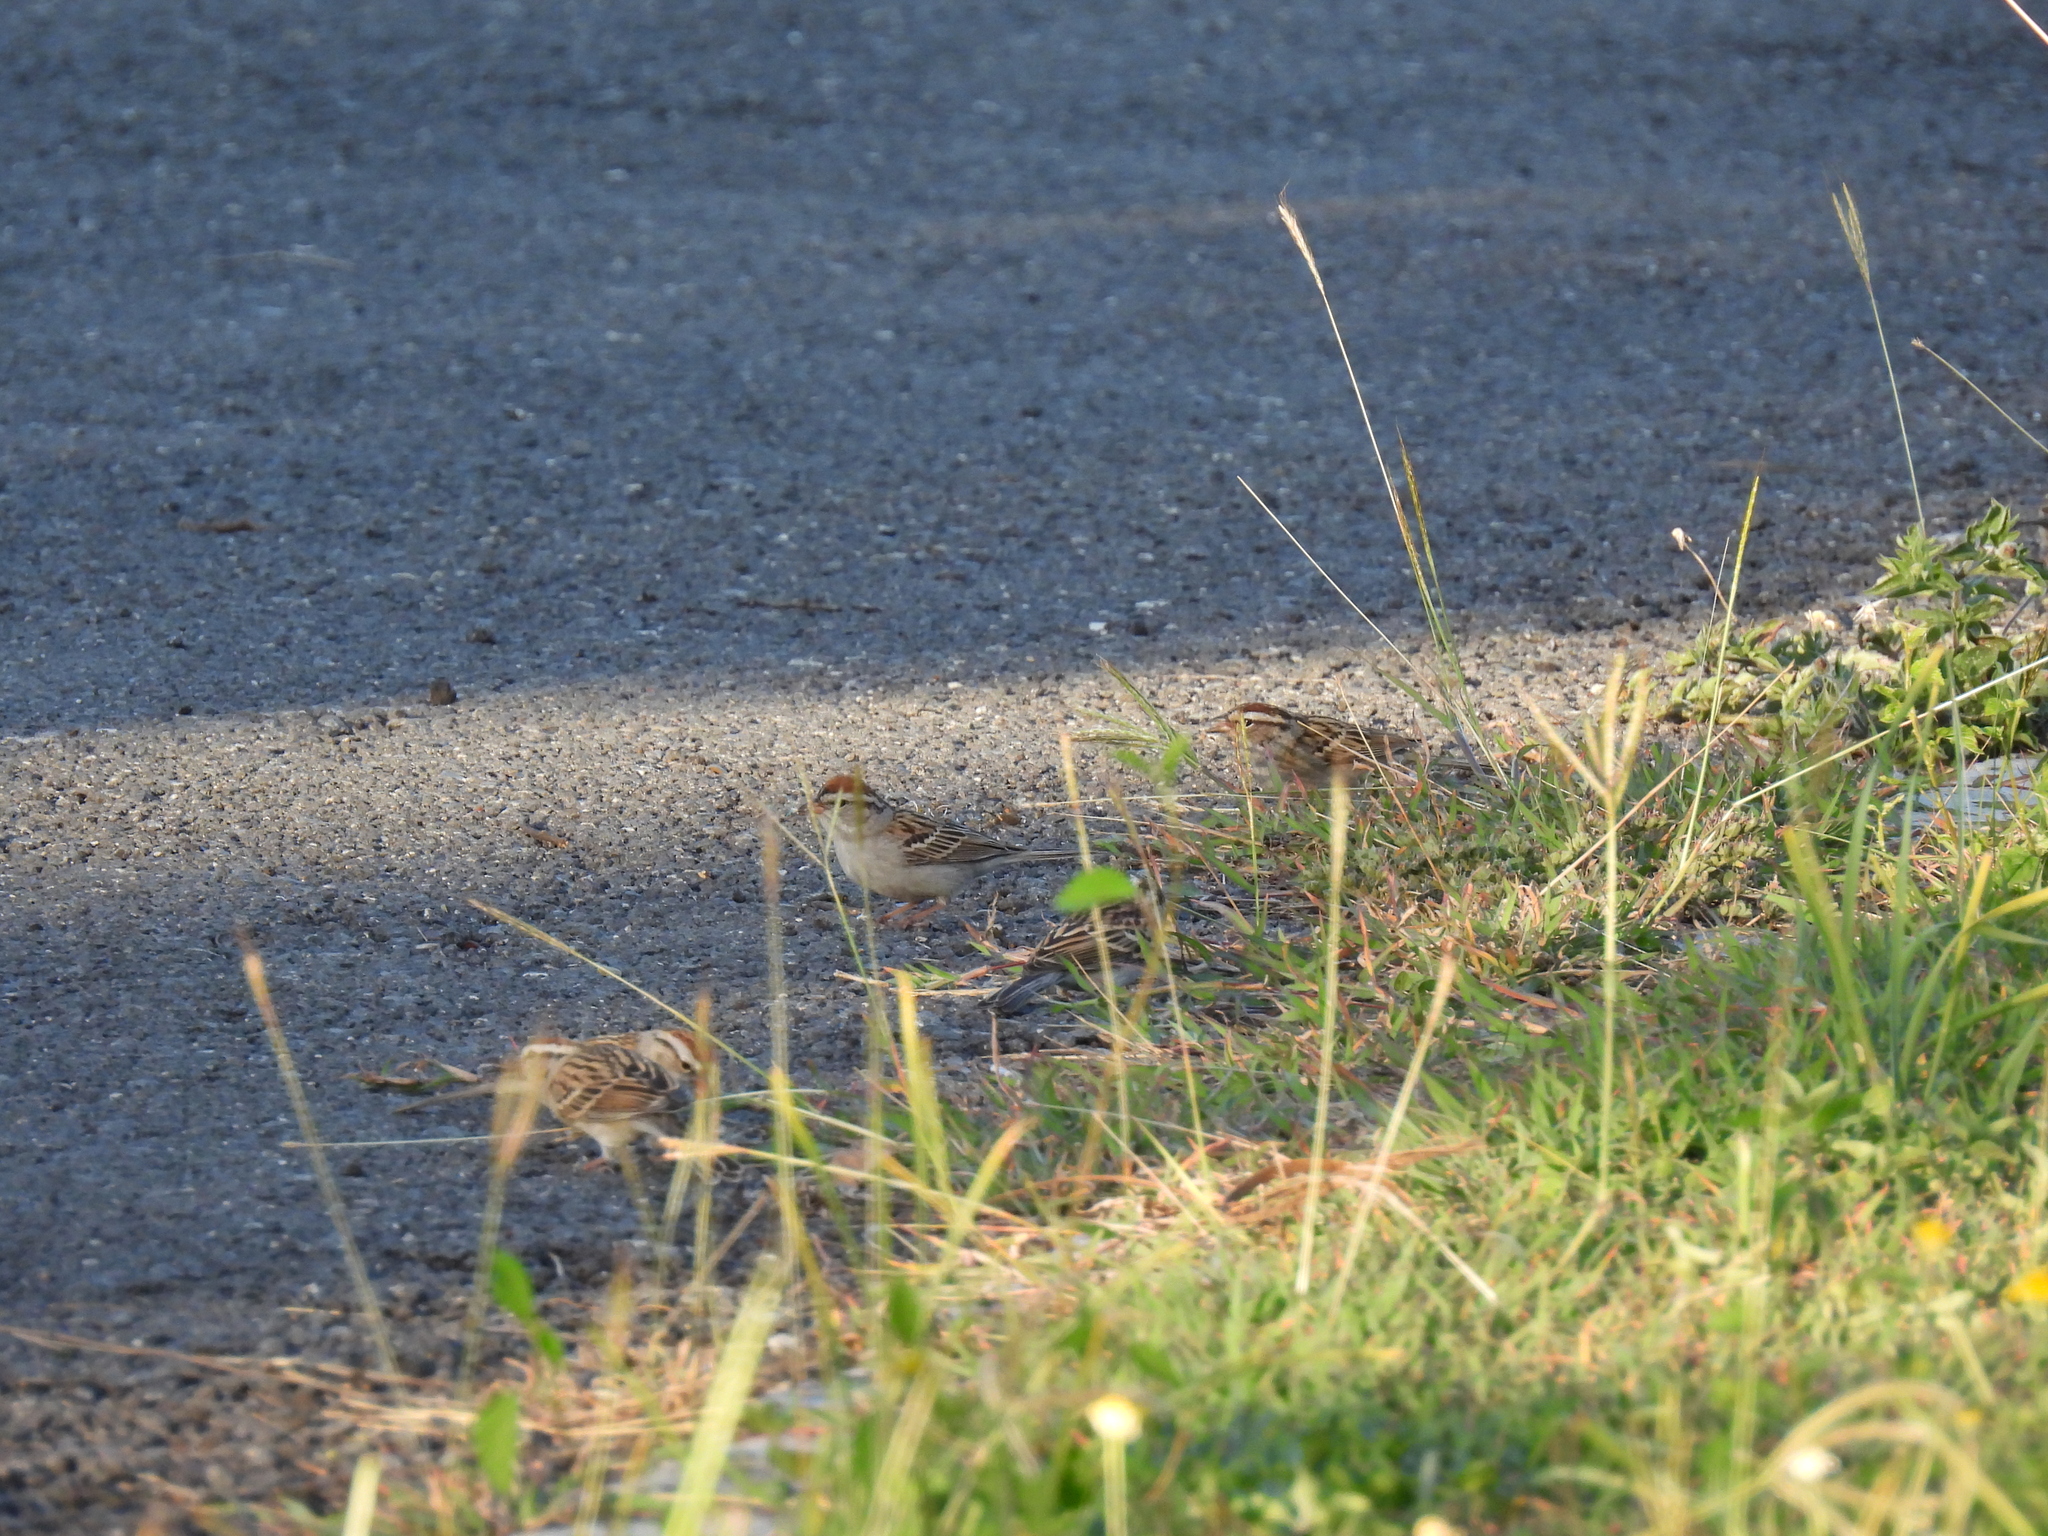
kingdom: Animalia
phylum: Chordata
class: Aves
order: Passeriformes
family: Passerellidae
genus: Spizella
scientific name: Spizella passerina
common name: Chipping sparrow
